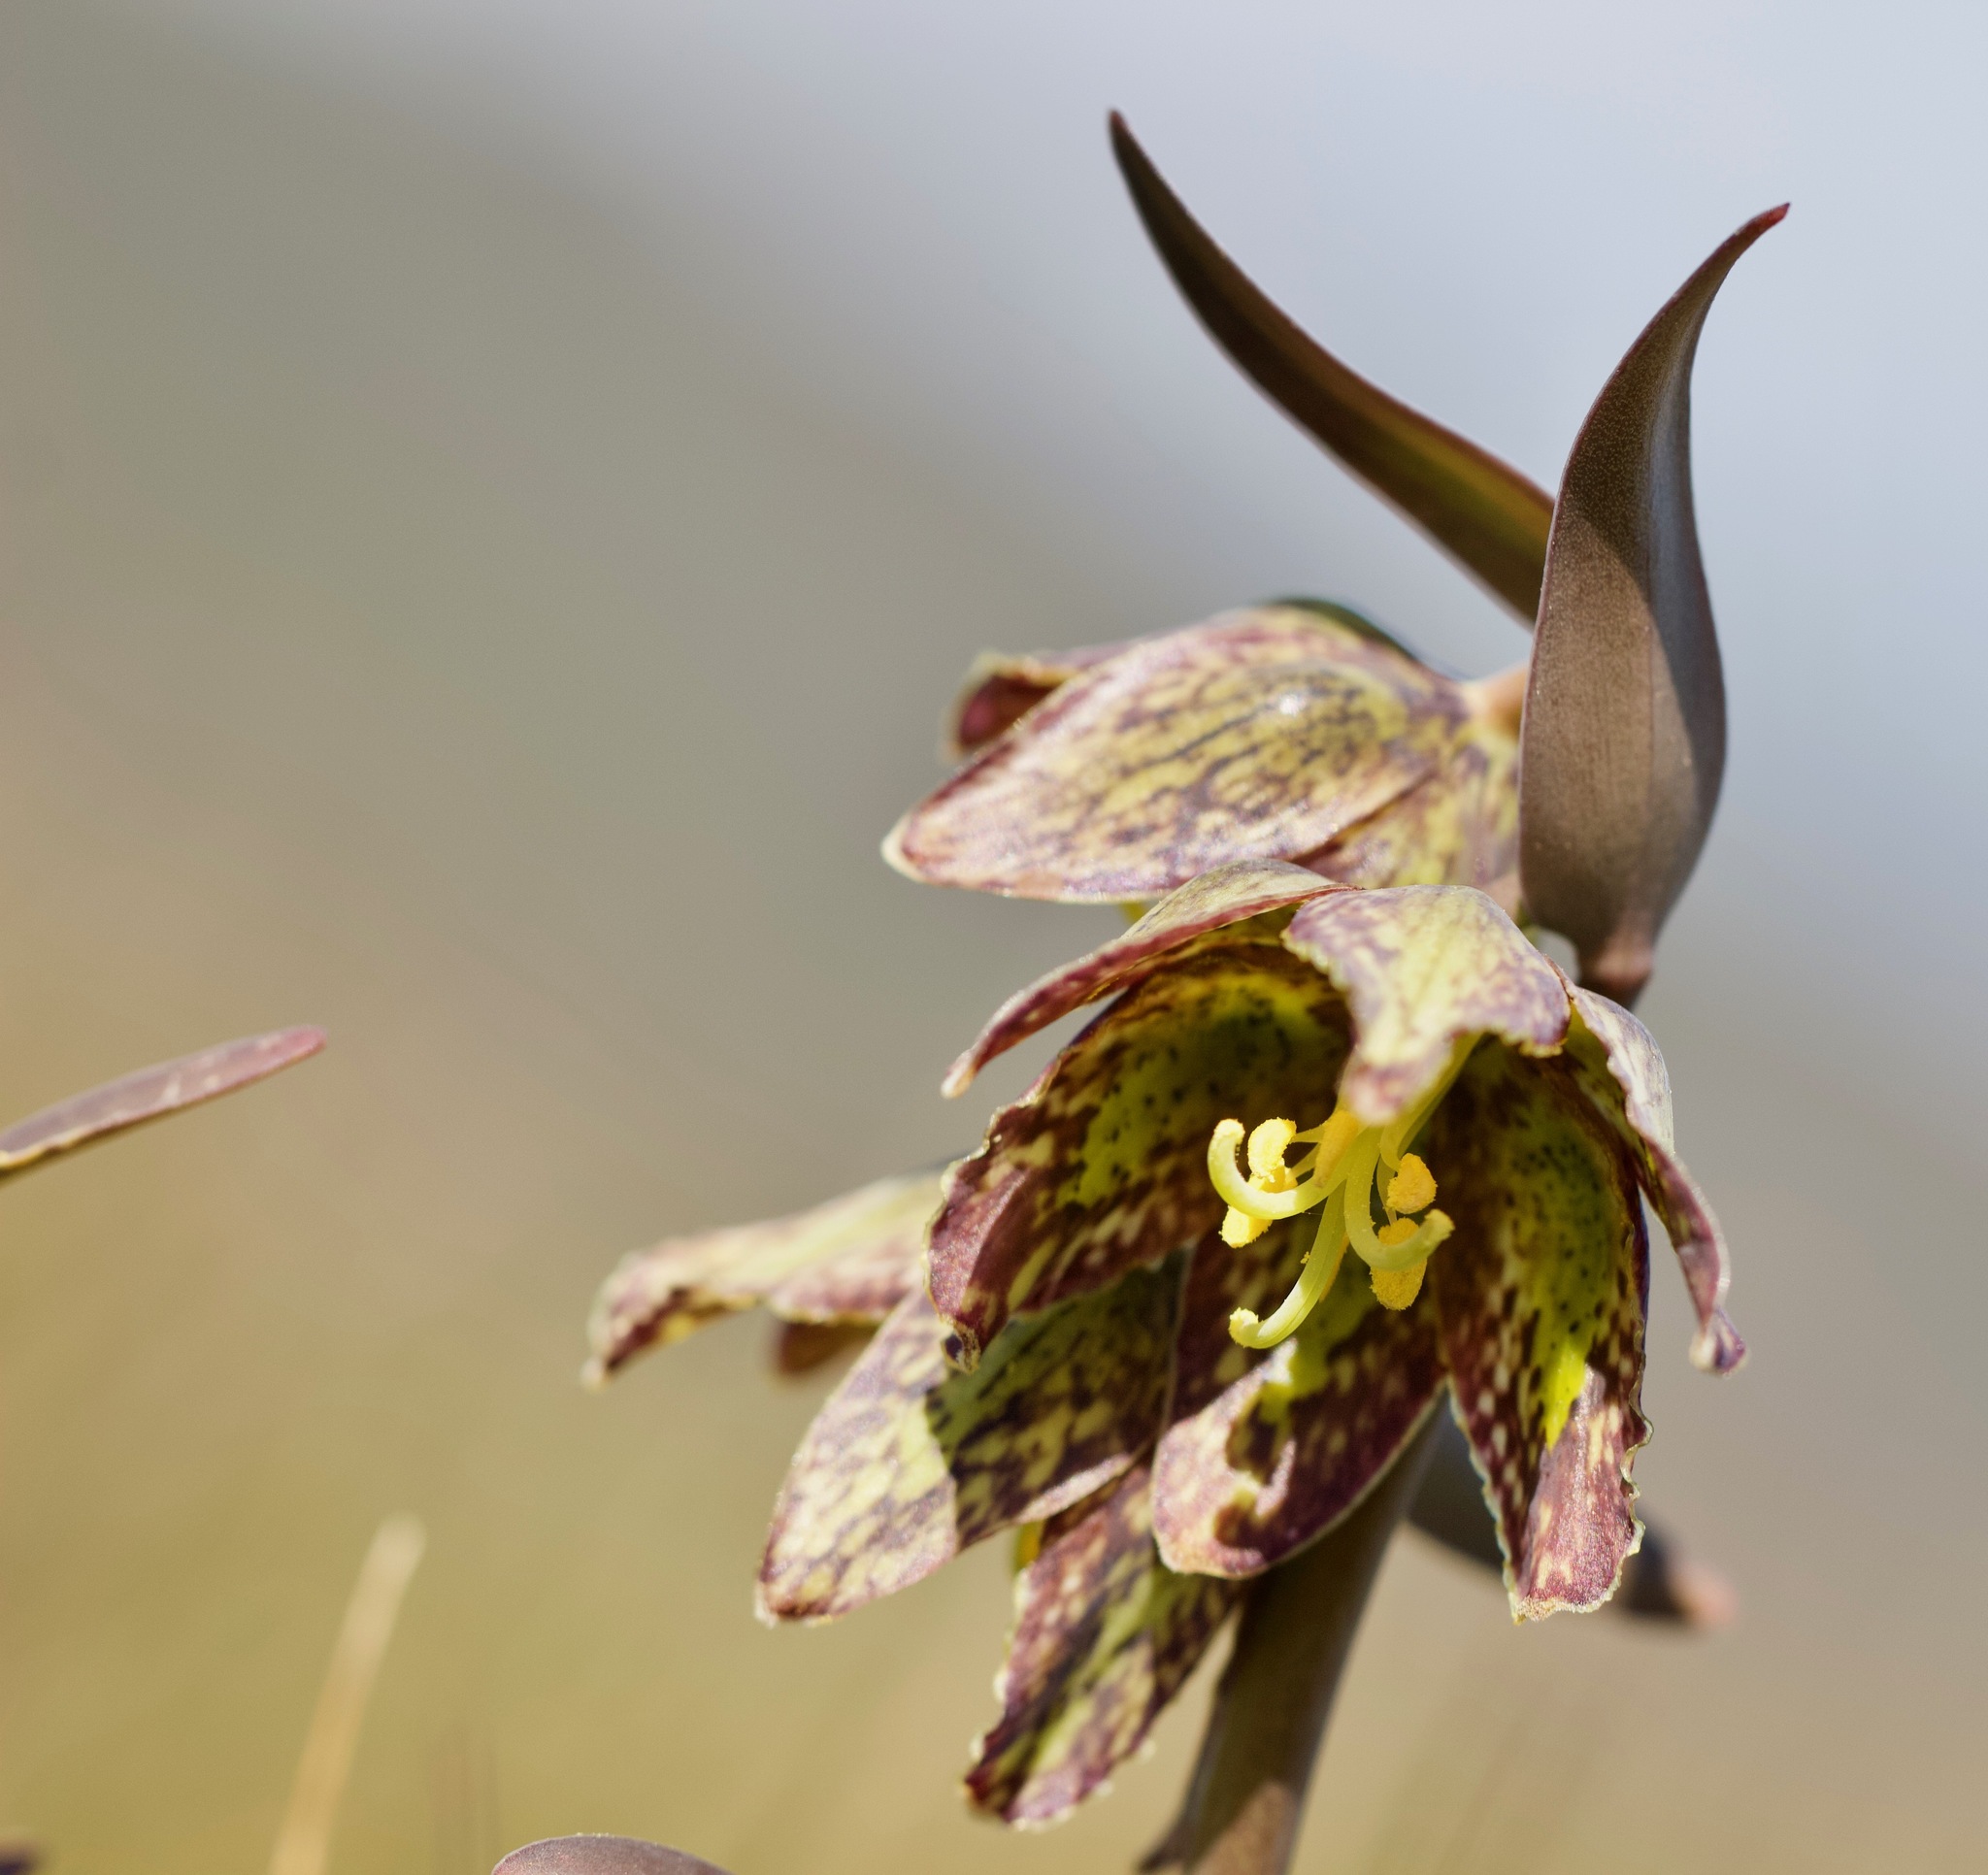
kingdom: Plantae
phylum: Tracheophyta
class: Liliopsida
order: Liliales
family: Liliaceae
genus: Fritillaria
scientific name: Fritillaria affinis
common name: Ojai fritillary
